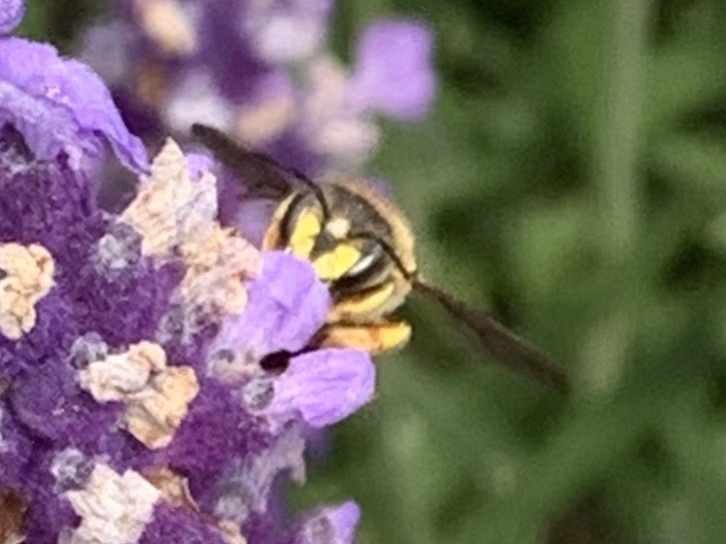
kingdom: Animalia
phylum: Arthropoda
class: Insecta
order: Hymenoptera
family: Megachilidae
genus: Anthidium
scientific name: Anthidium manicatum
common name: Wool carder bee
